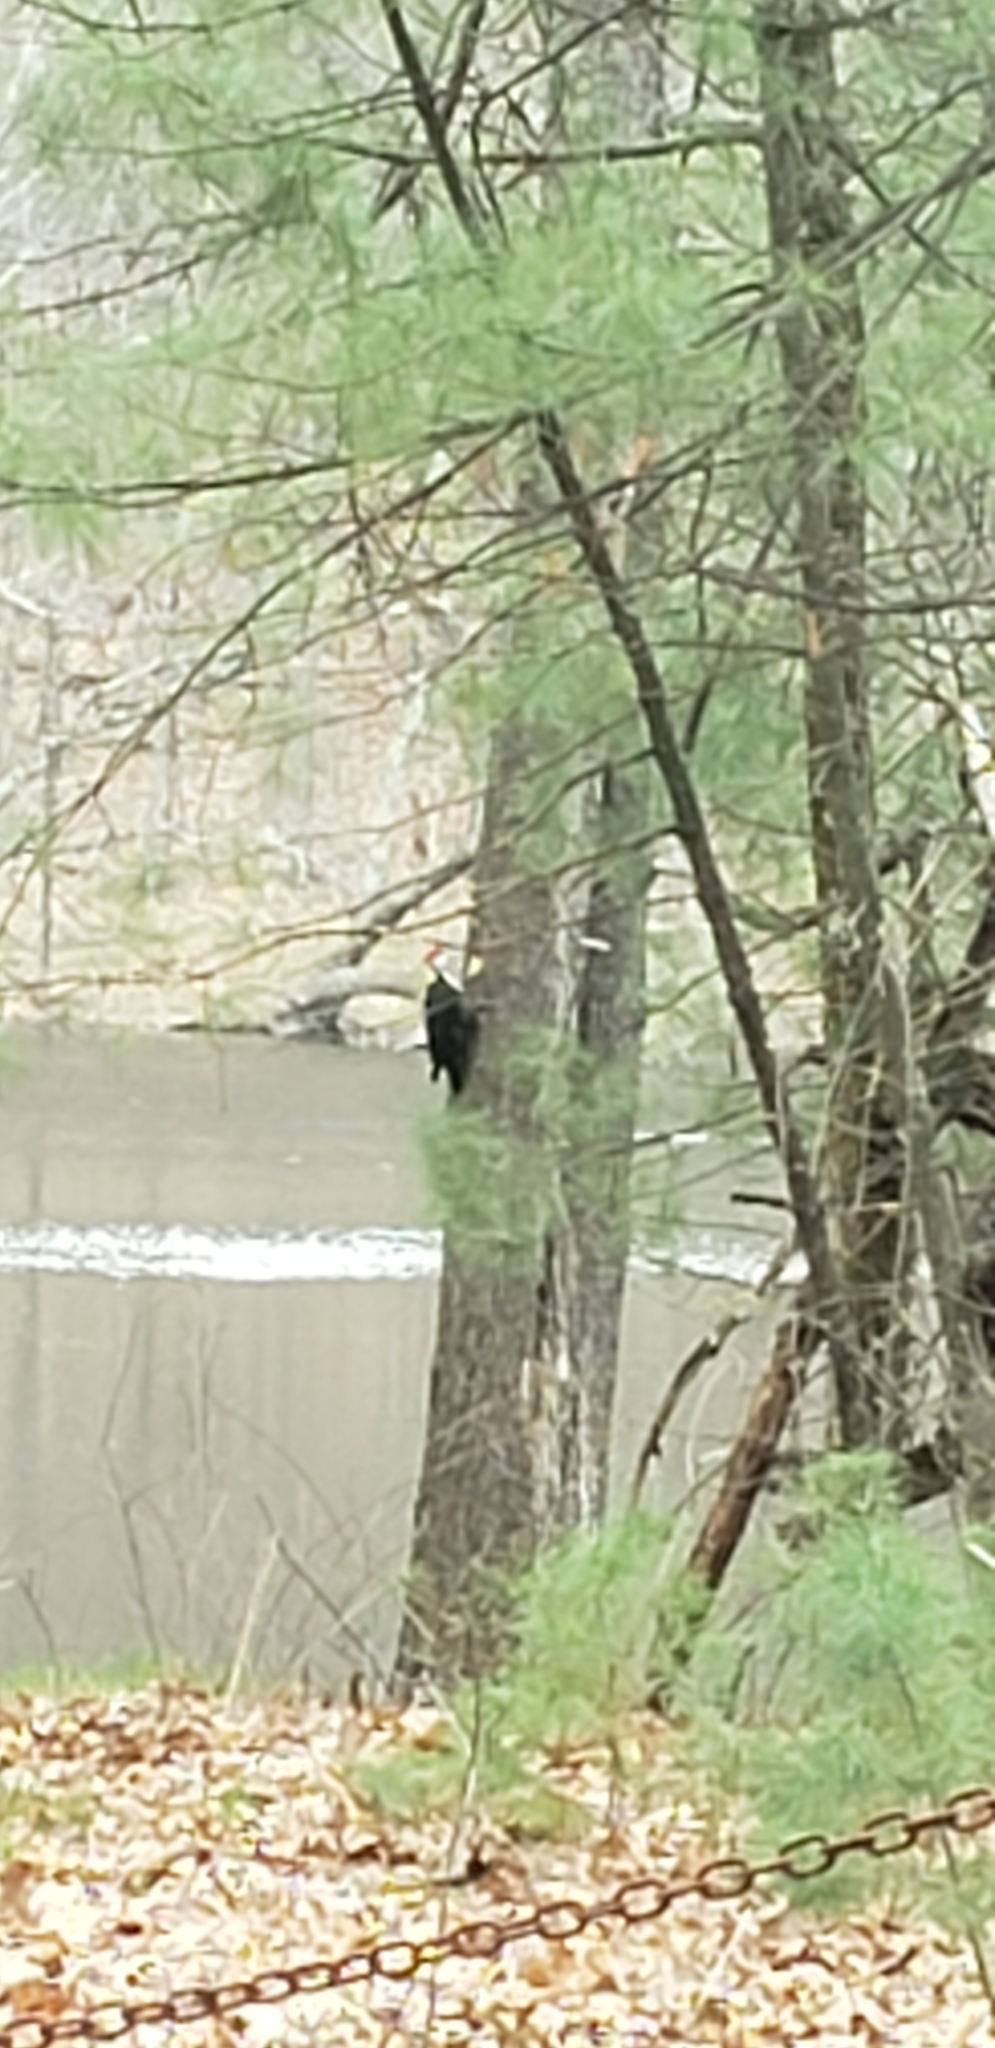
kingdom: Animalia
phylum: Chordata
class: Aves
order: Piciformes
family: Picidae
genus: Dryocopus
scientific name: Dryocopus pileatus
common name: Pileated woodpecker
